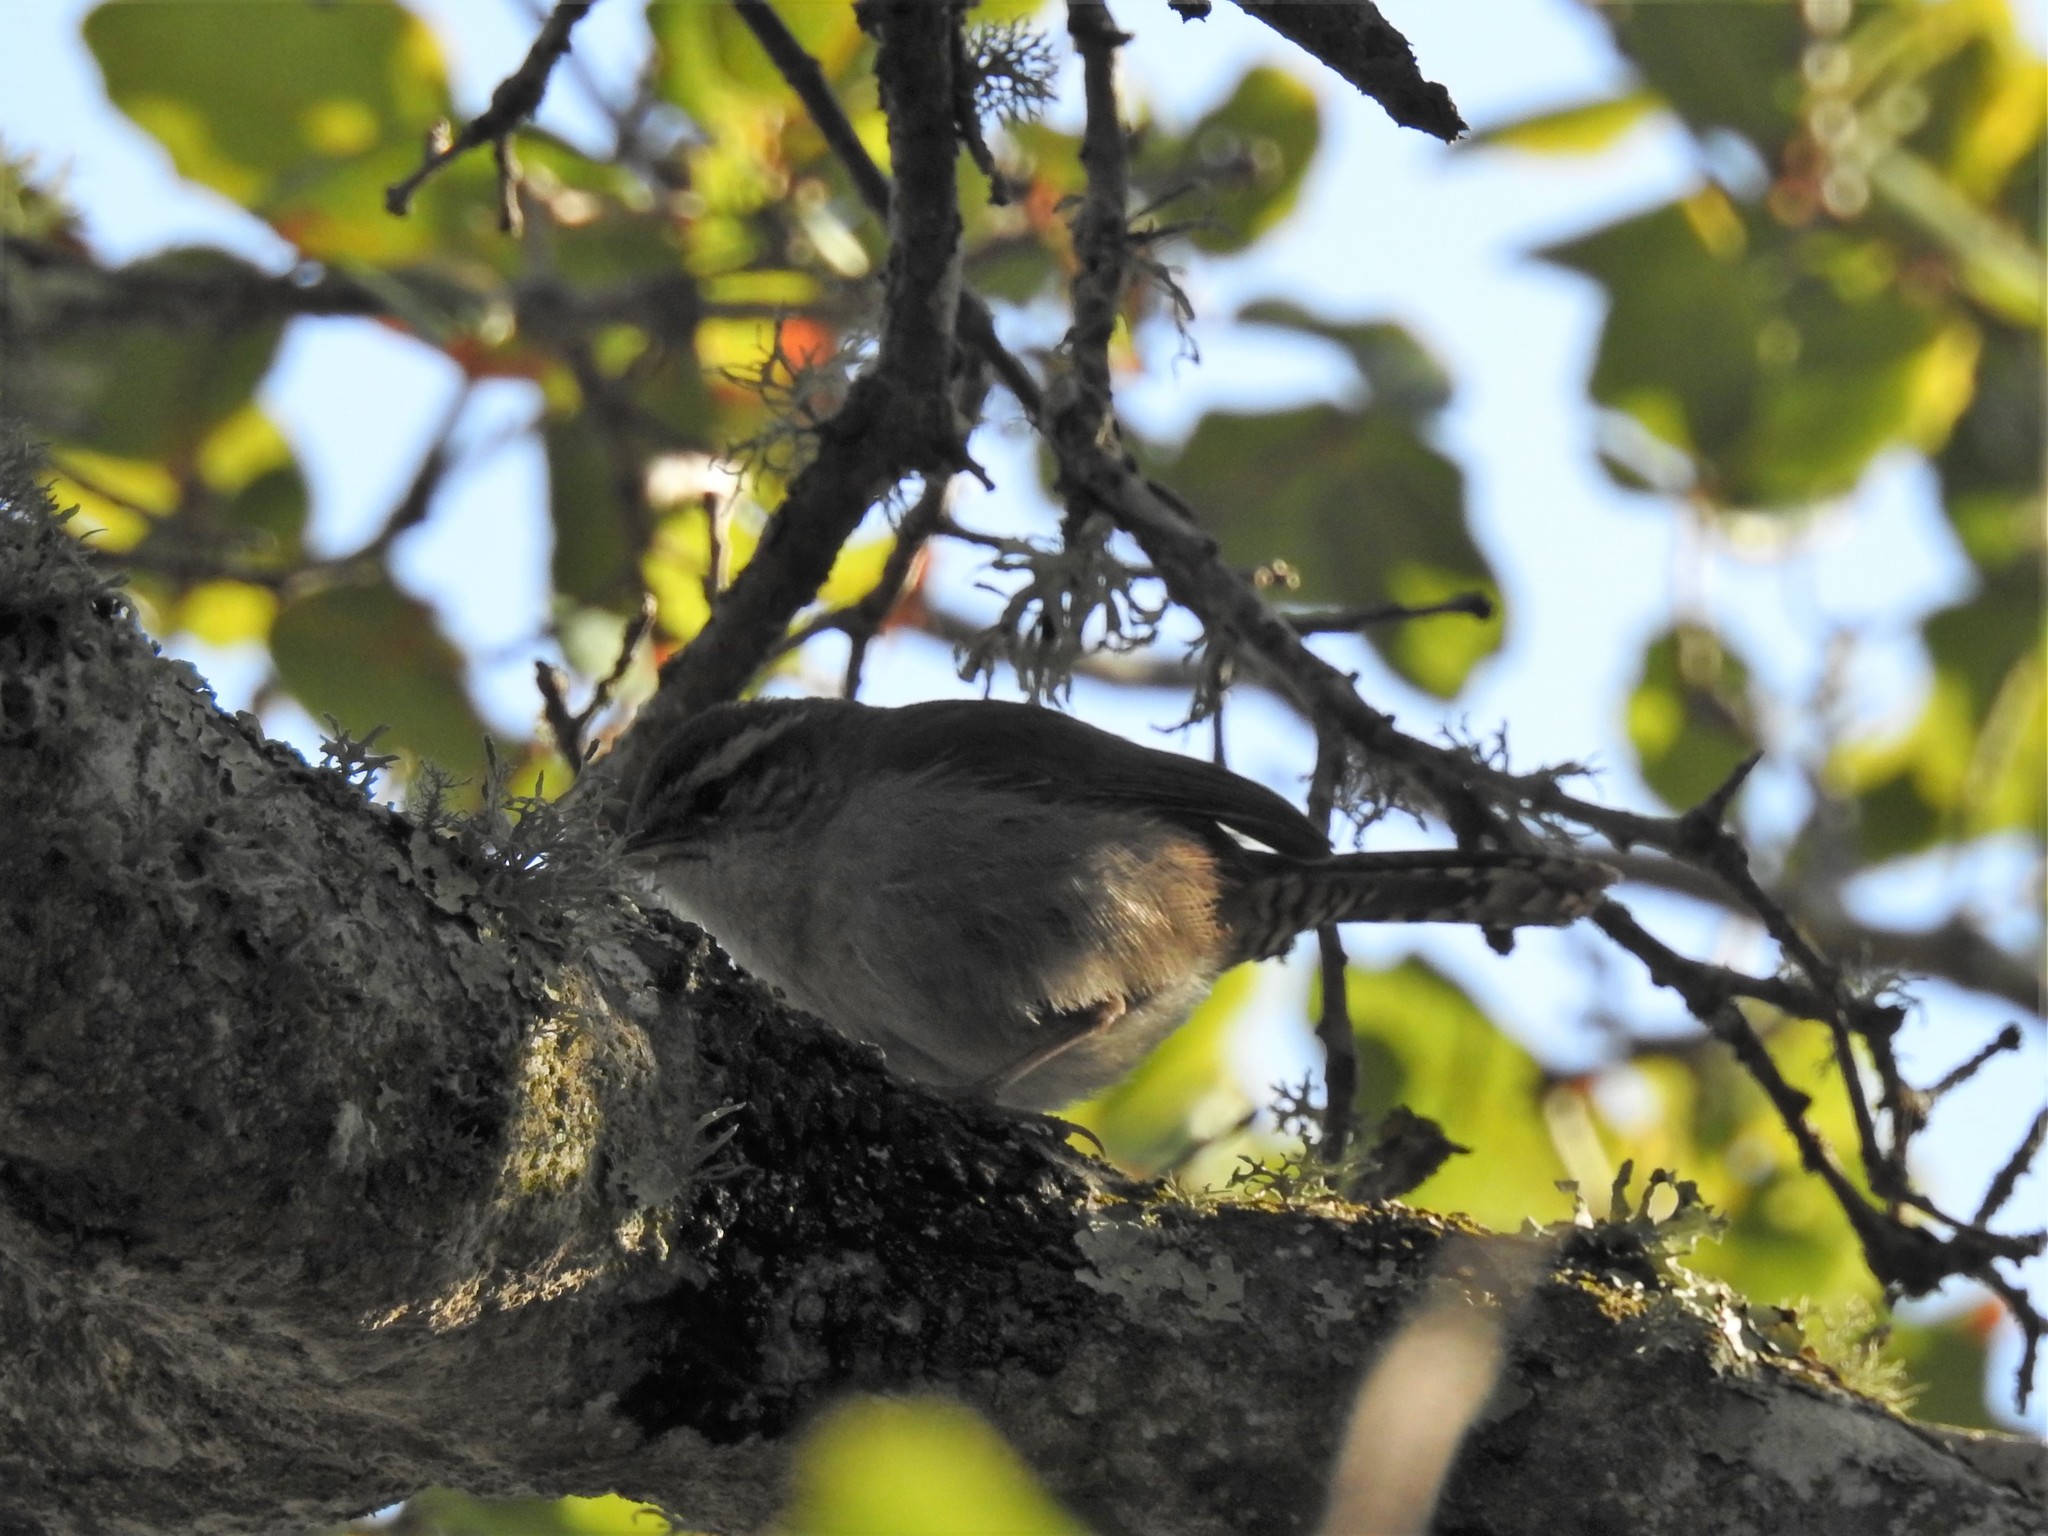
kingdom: Animalia
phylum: Chordata
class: Aves
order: Passeriformes
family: Troglodytidae
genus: Thryomanes
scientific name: Thryomanes bewickii
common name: Bewick's wren
